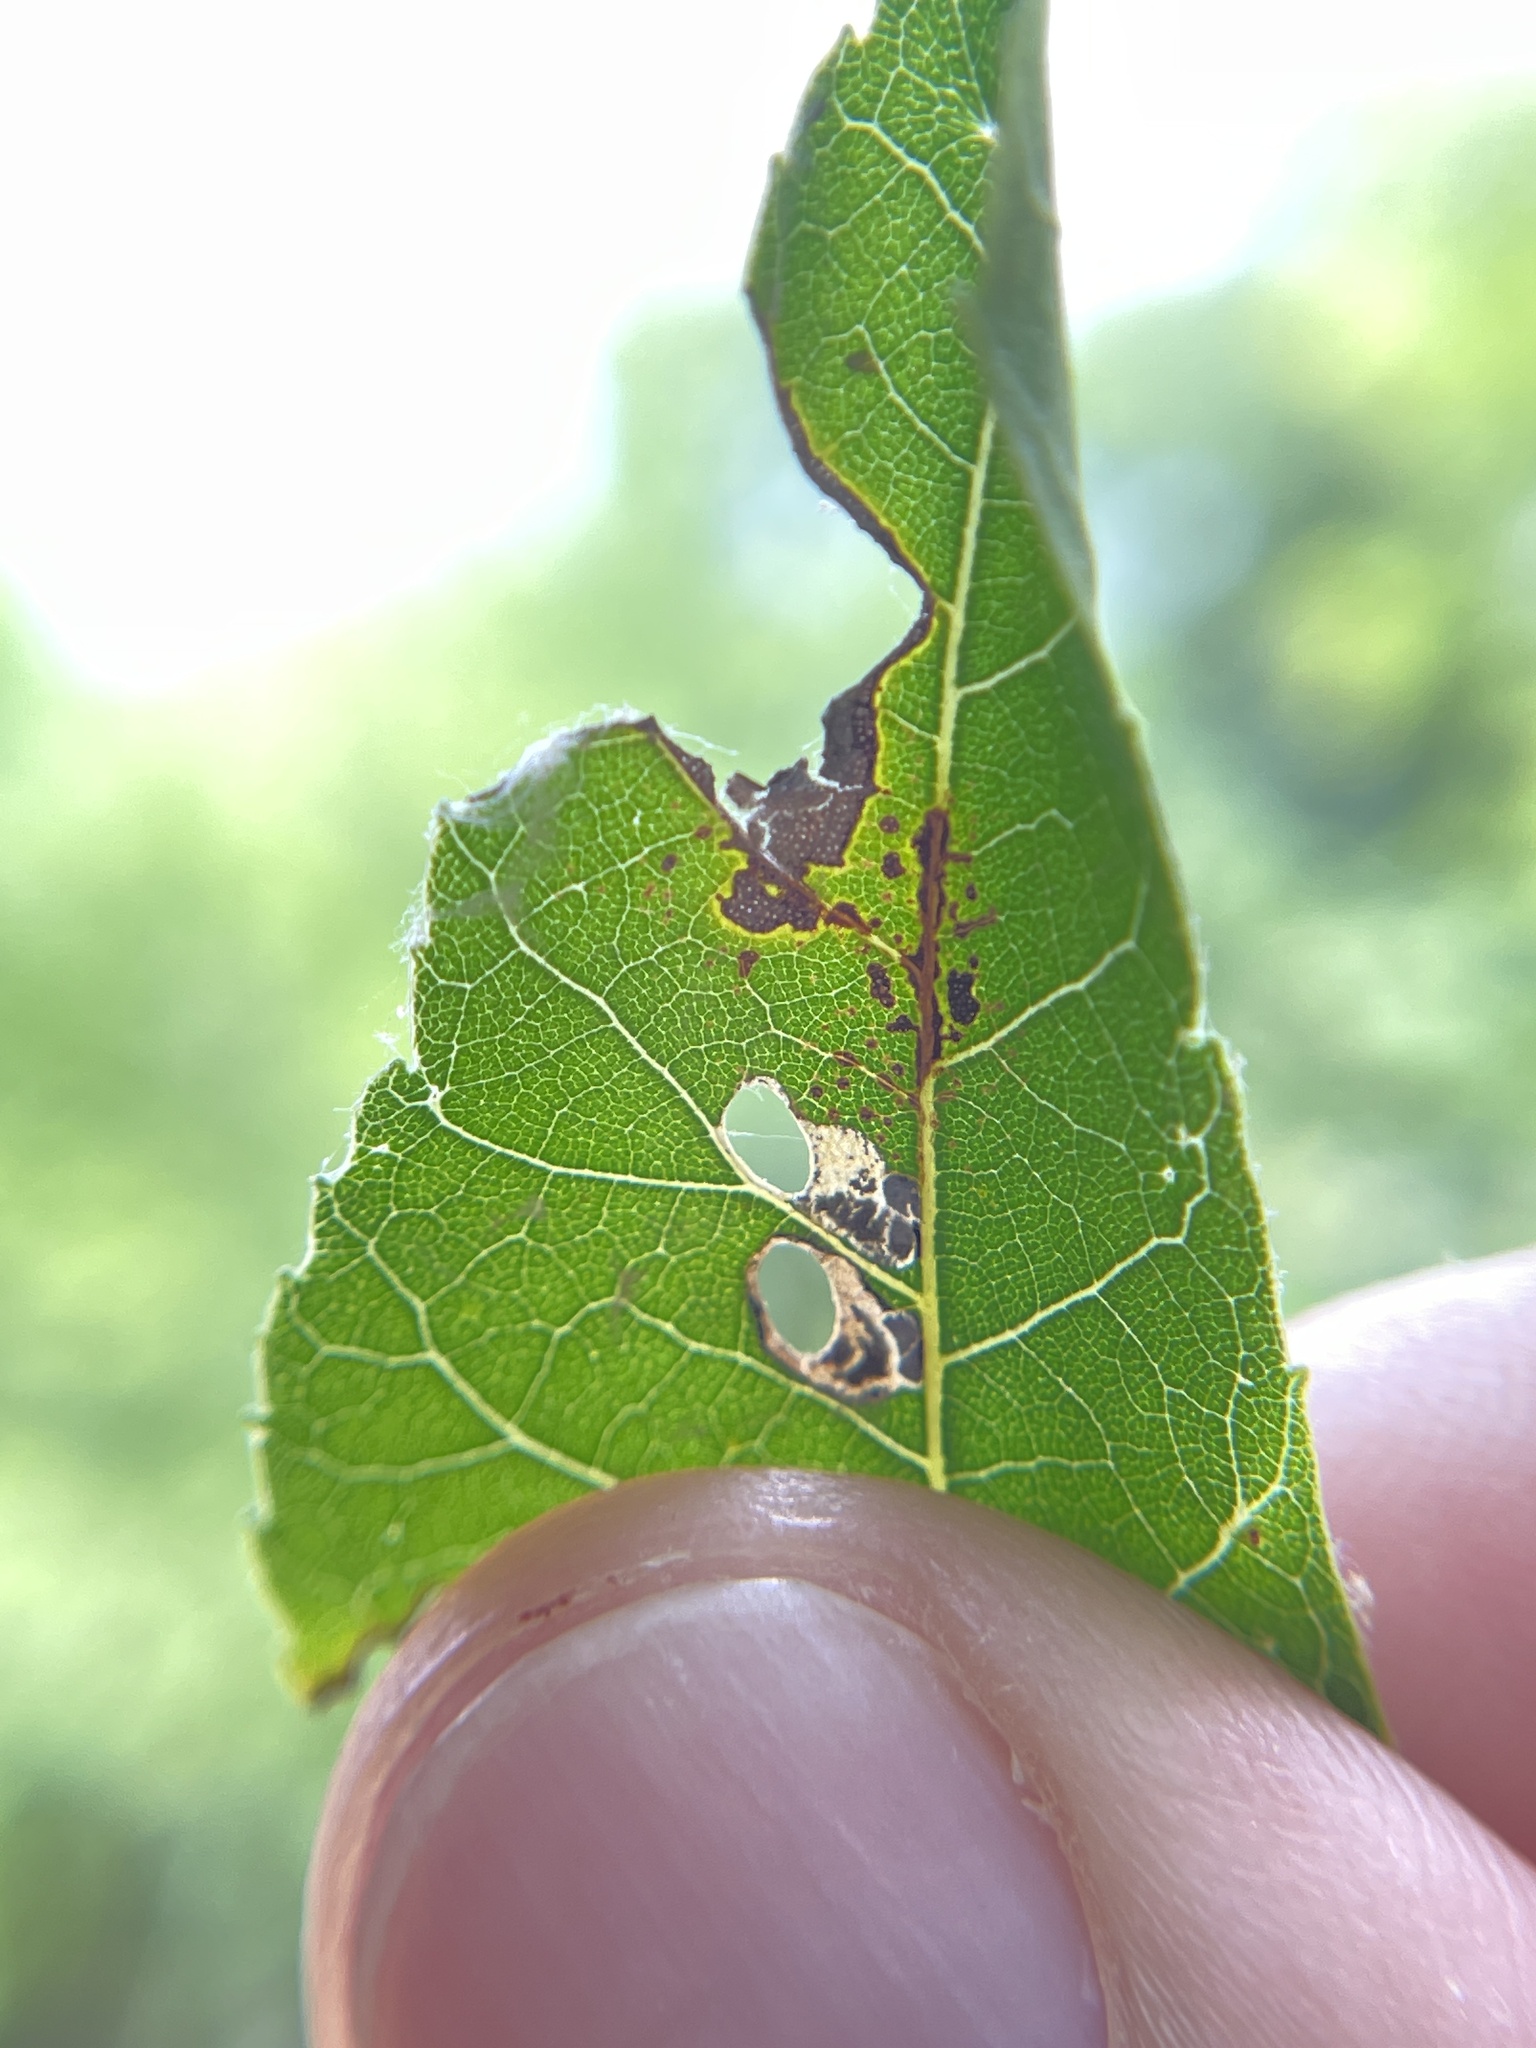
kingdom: Animalia
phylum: Arthropoda
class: Insecta
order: Lepidoptera
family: Heliozelidae
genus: Coptodisca
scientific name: Coptodisca lucifluella
